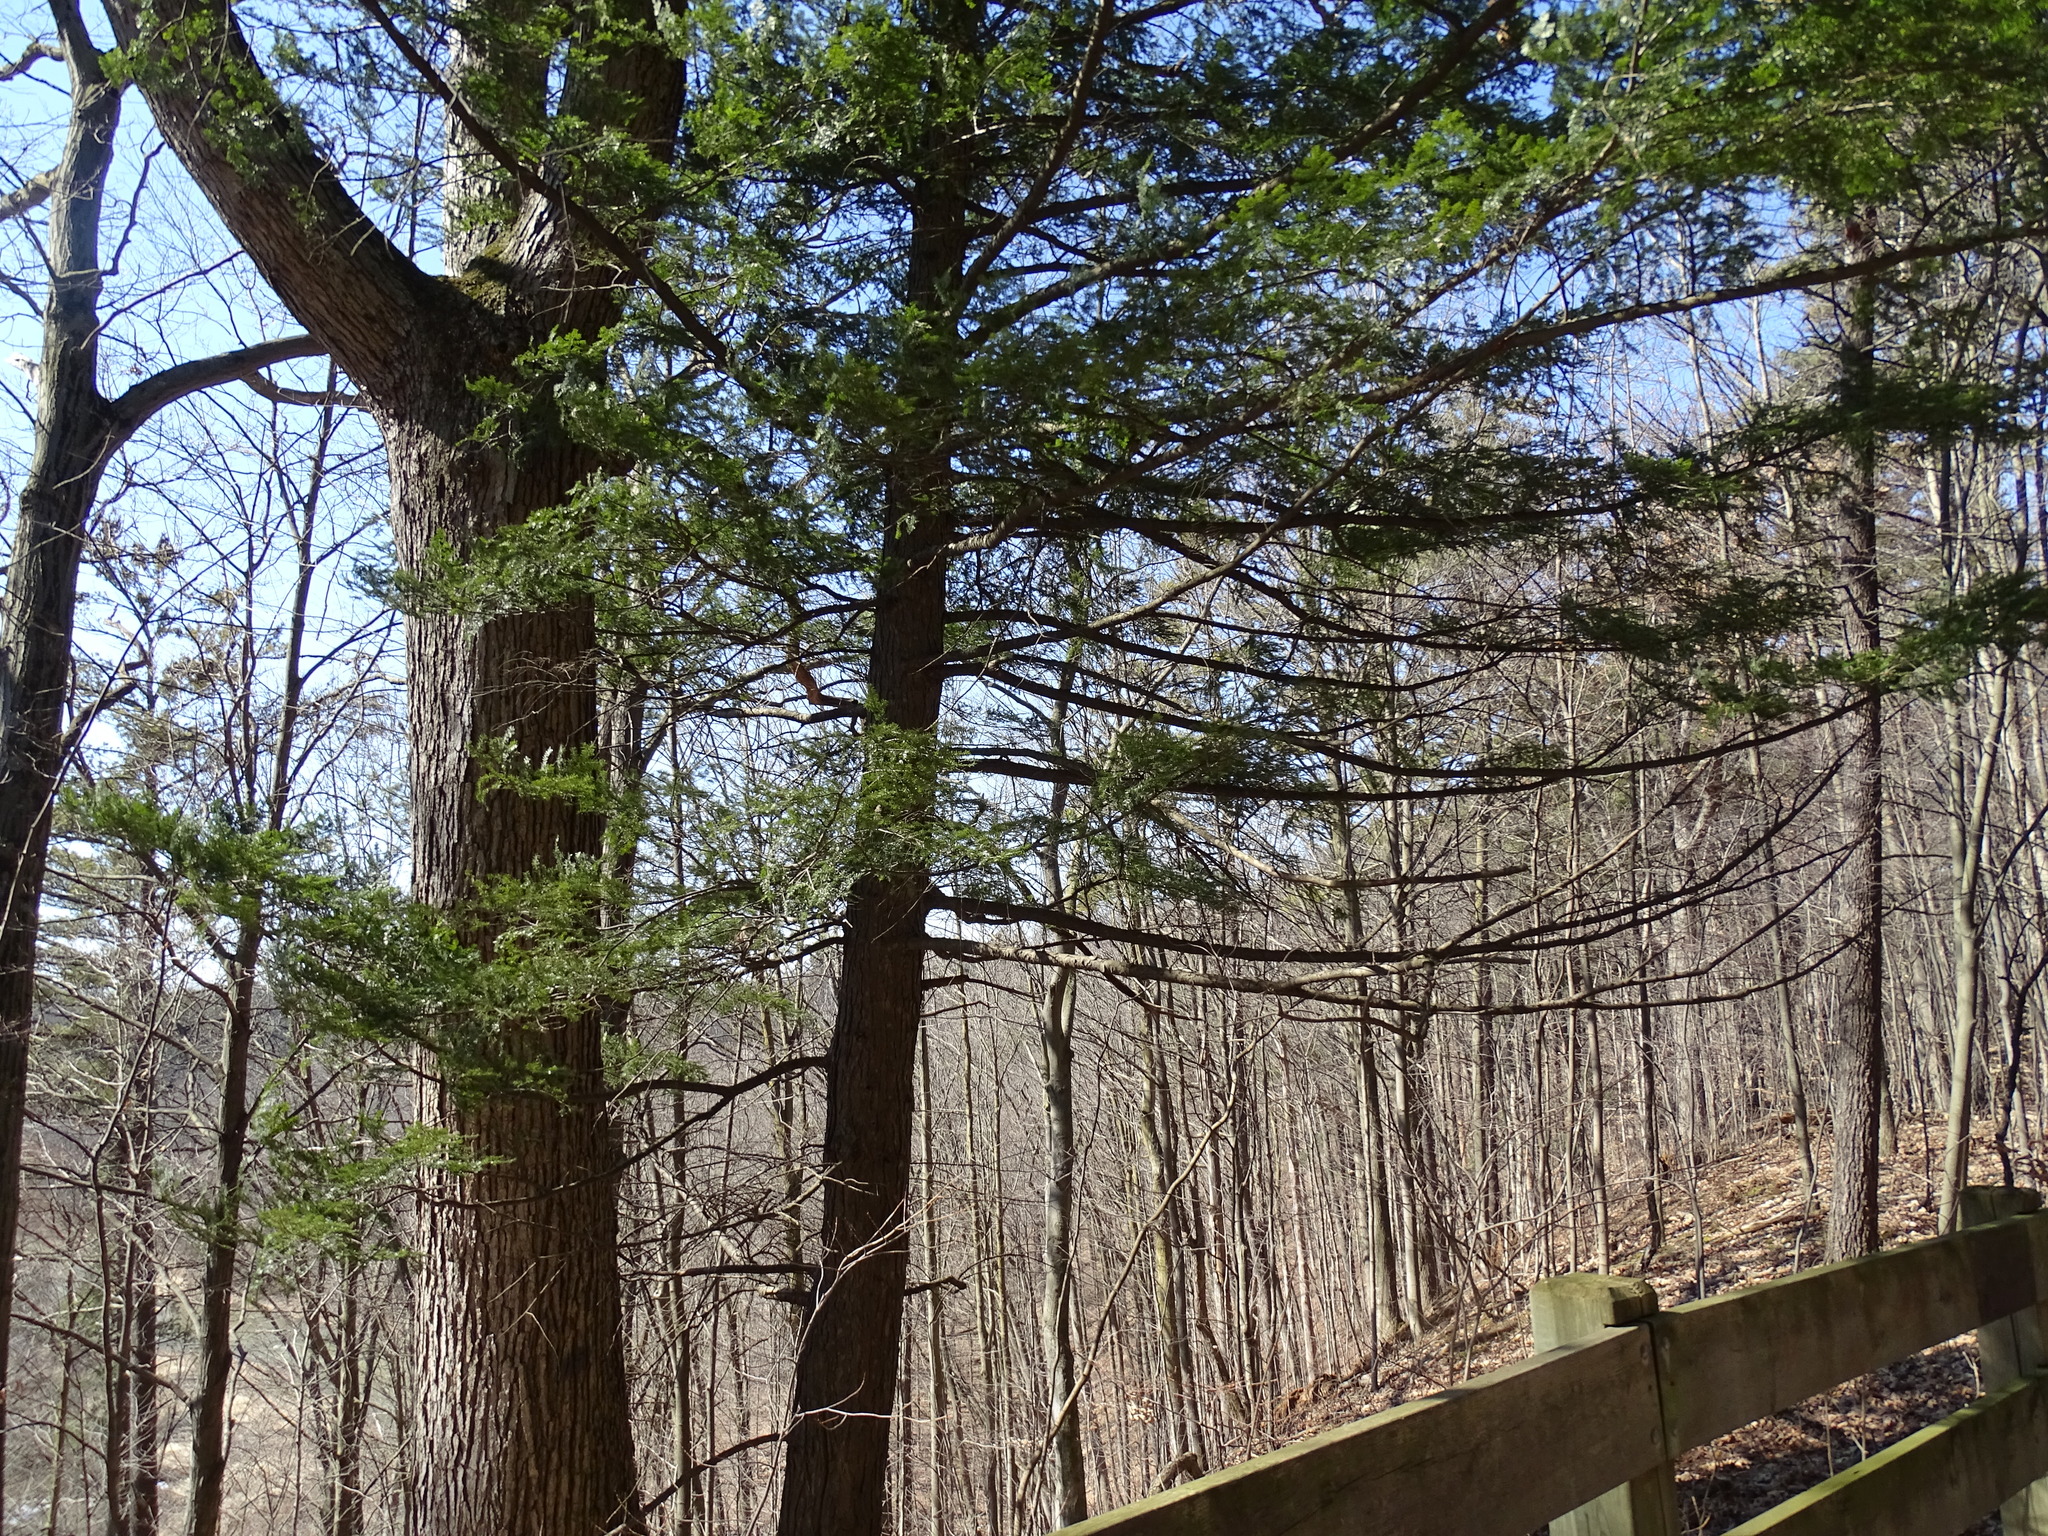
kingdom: Plantae
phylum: Tracheophyta
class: Pinopsida
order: Pinales
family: Pinaceae
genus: Tsuga
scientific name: Tsuga canadensis
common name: Eastern hemlock
